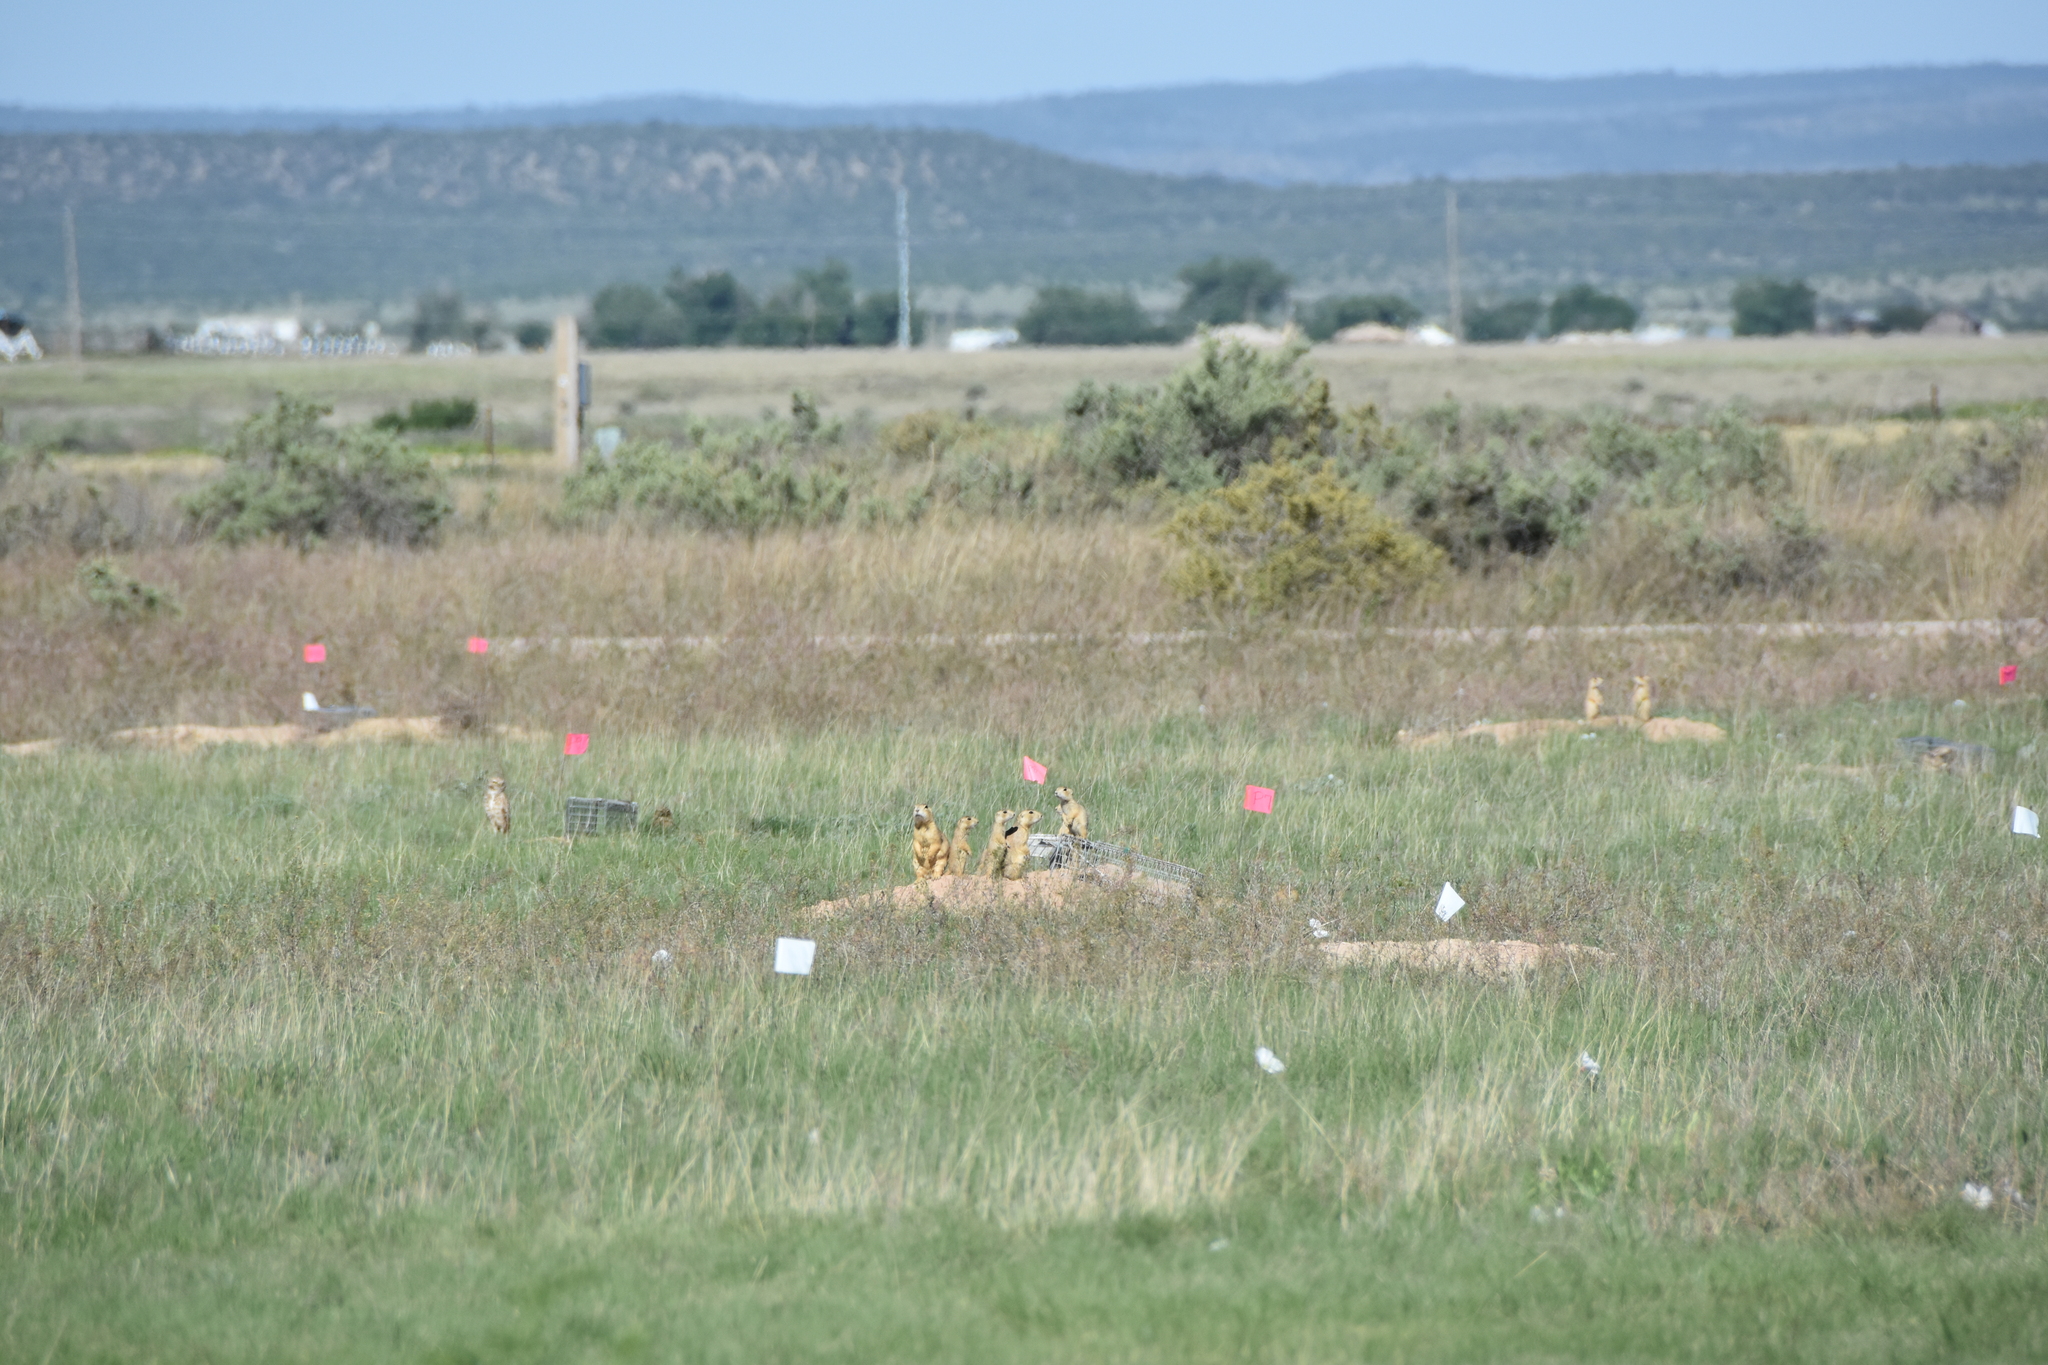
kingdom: Animalia
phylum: Chordata
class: Aves
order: Strigiformes
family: Strigidae
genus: Athene
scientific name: Athene cunicularia
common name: Burrowing owl
